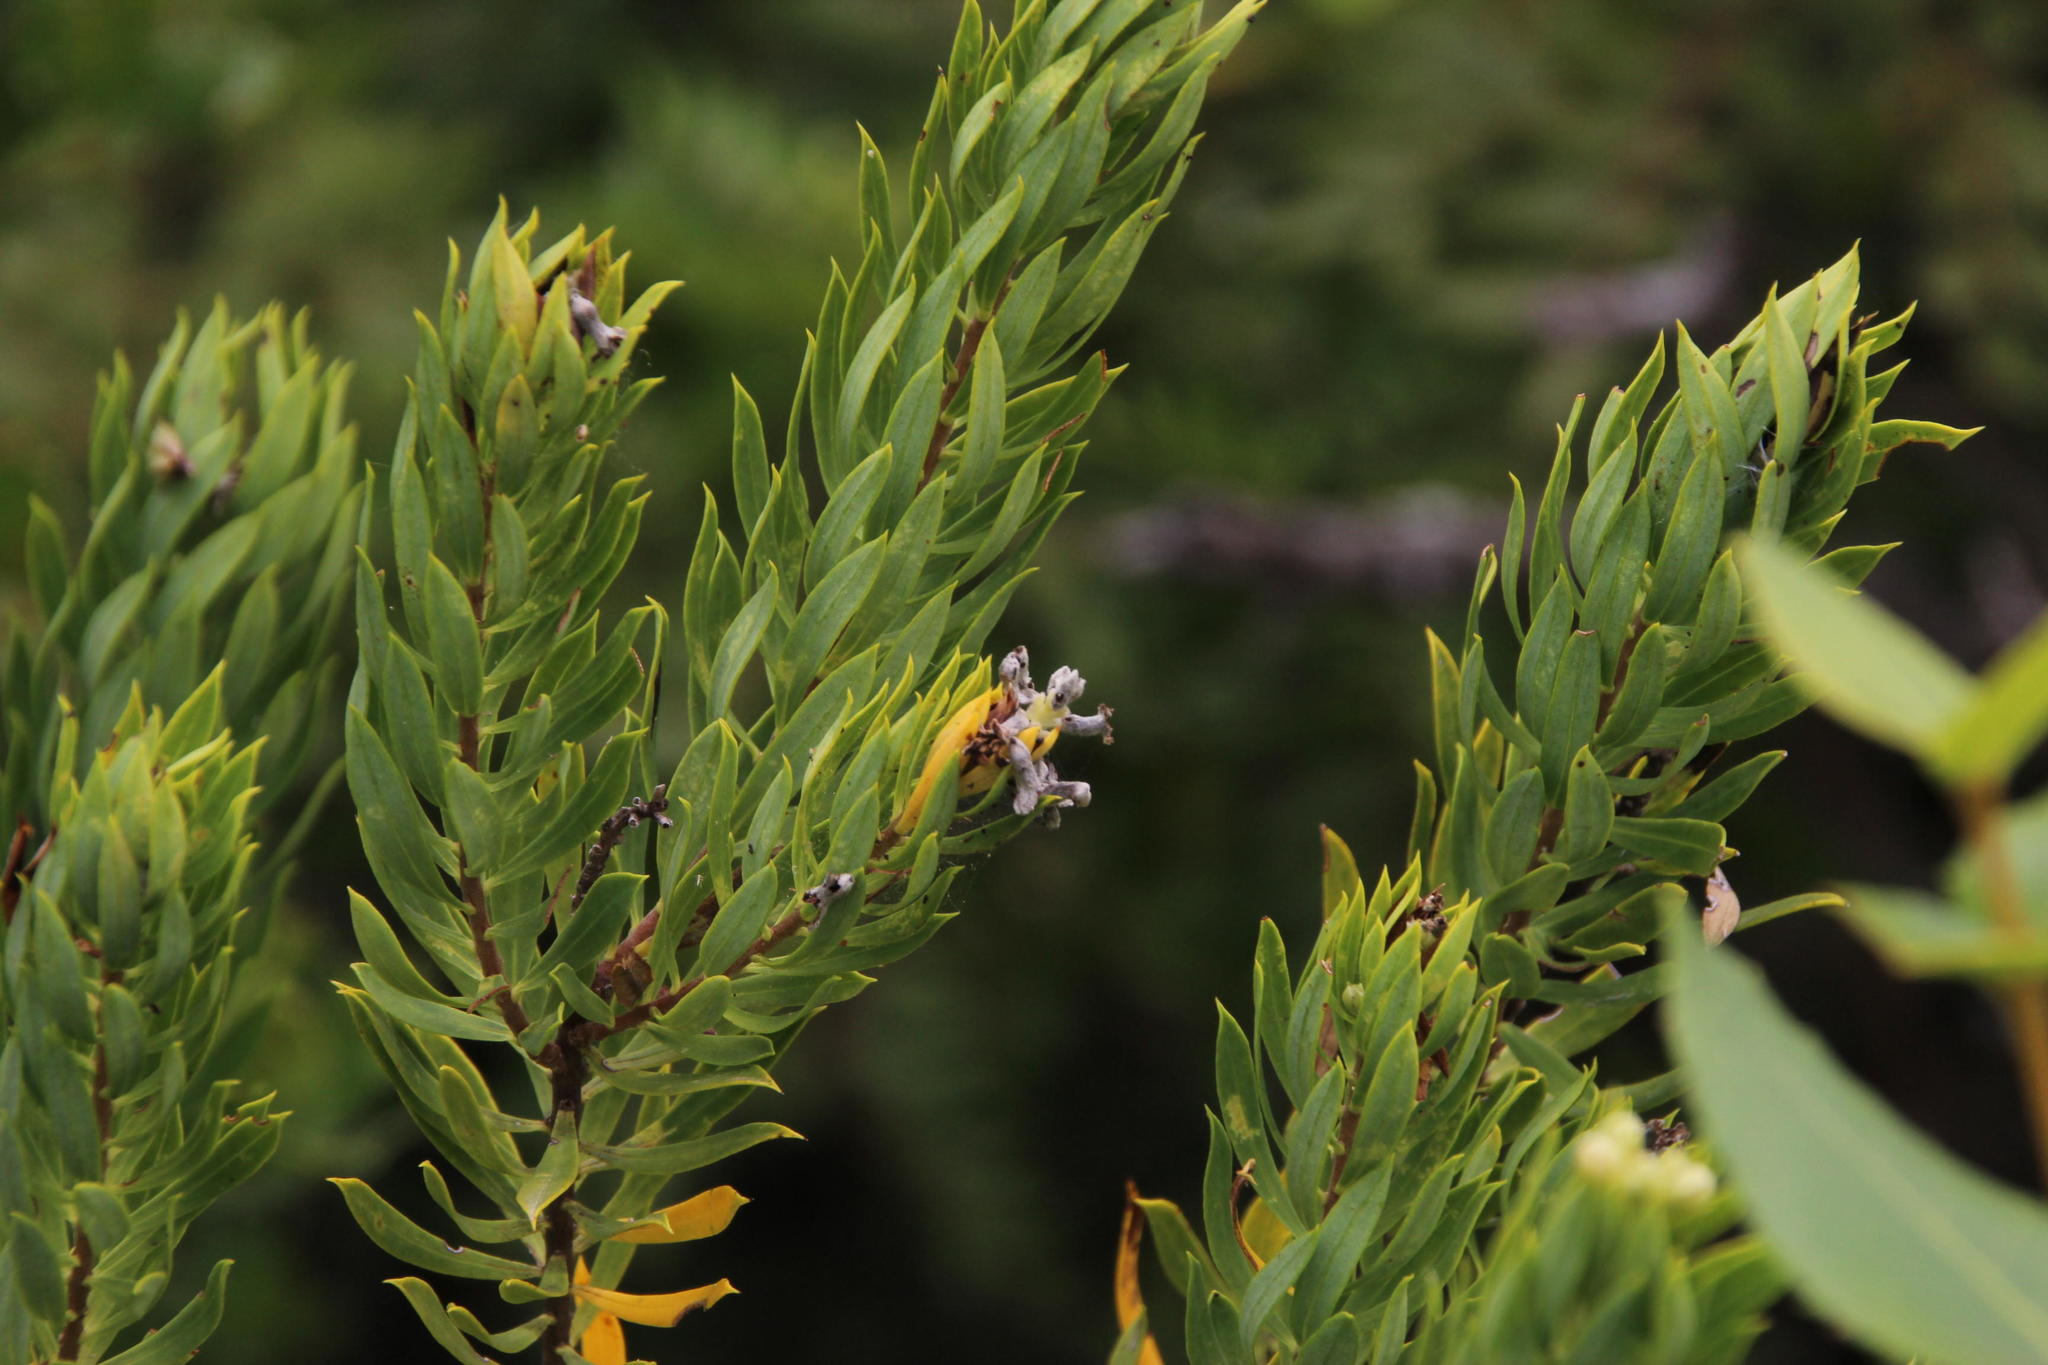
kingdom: Plantae
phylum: Tracheophyta
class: Magnoliopsida
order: Malvales
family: Thymelaeaceae
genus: Daphne
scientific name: Daphne gnidium
